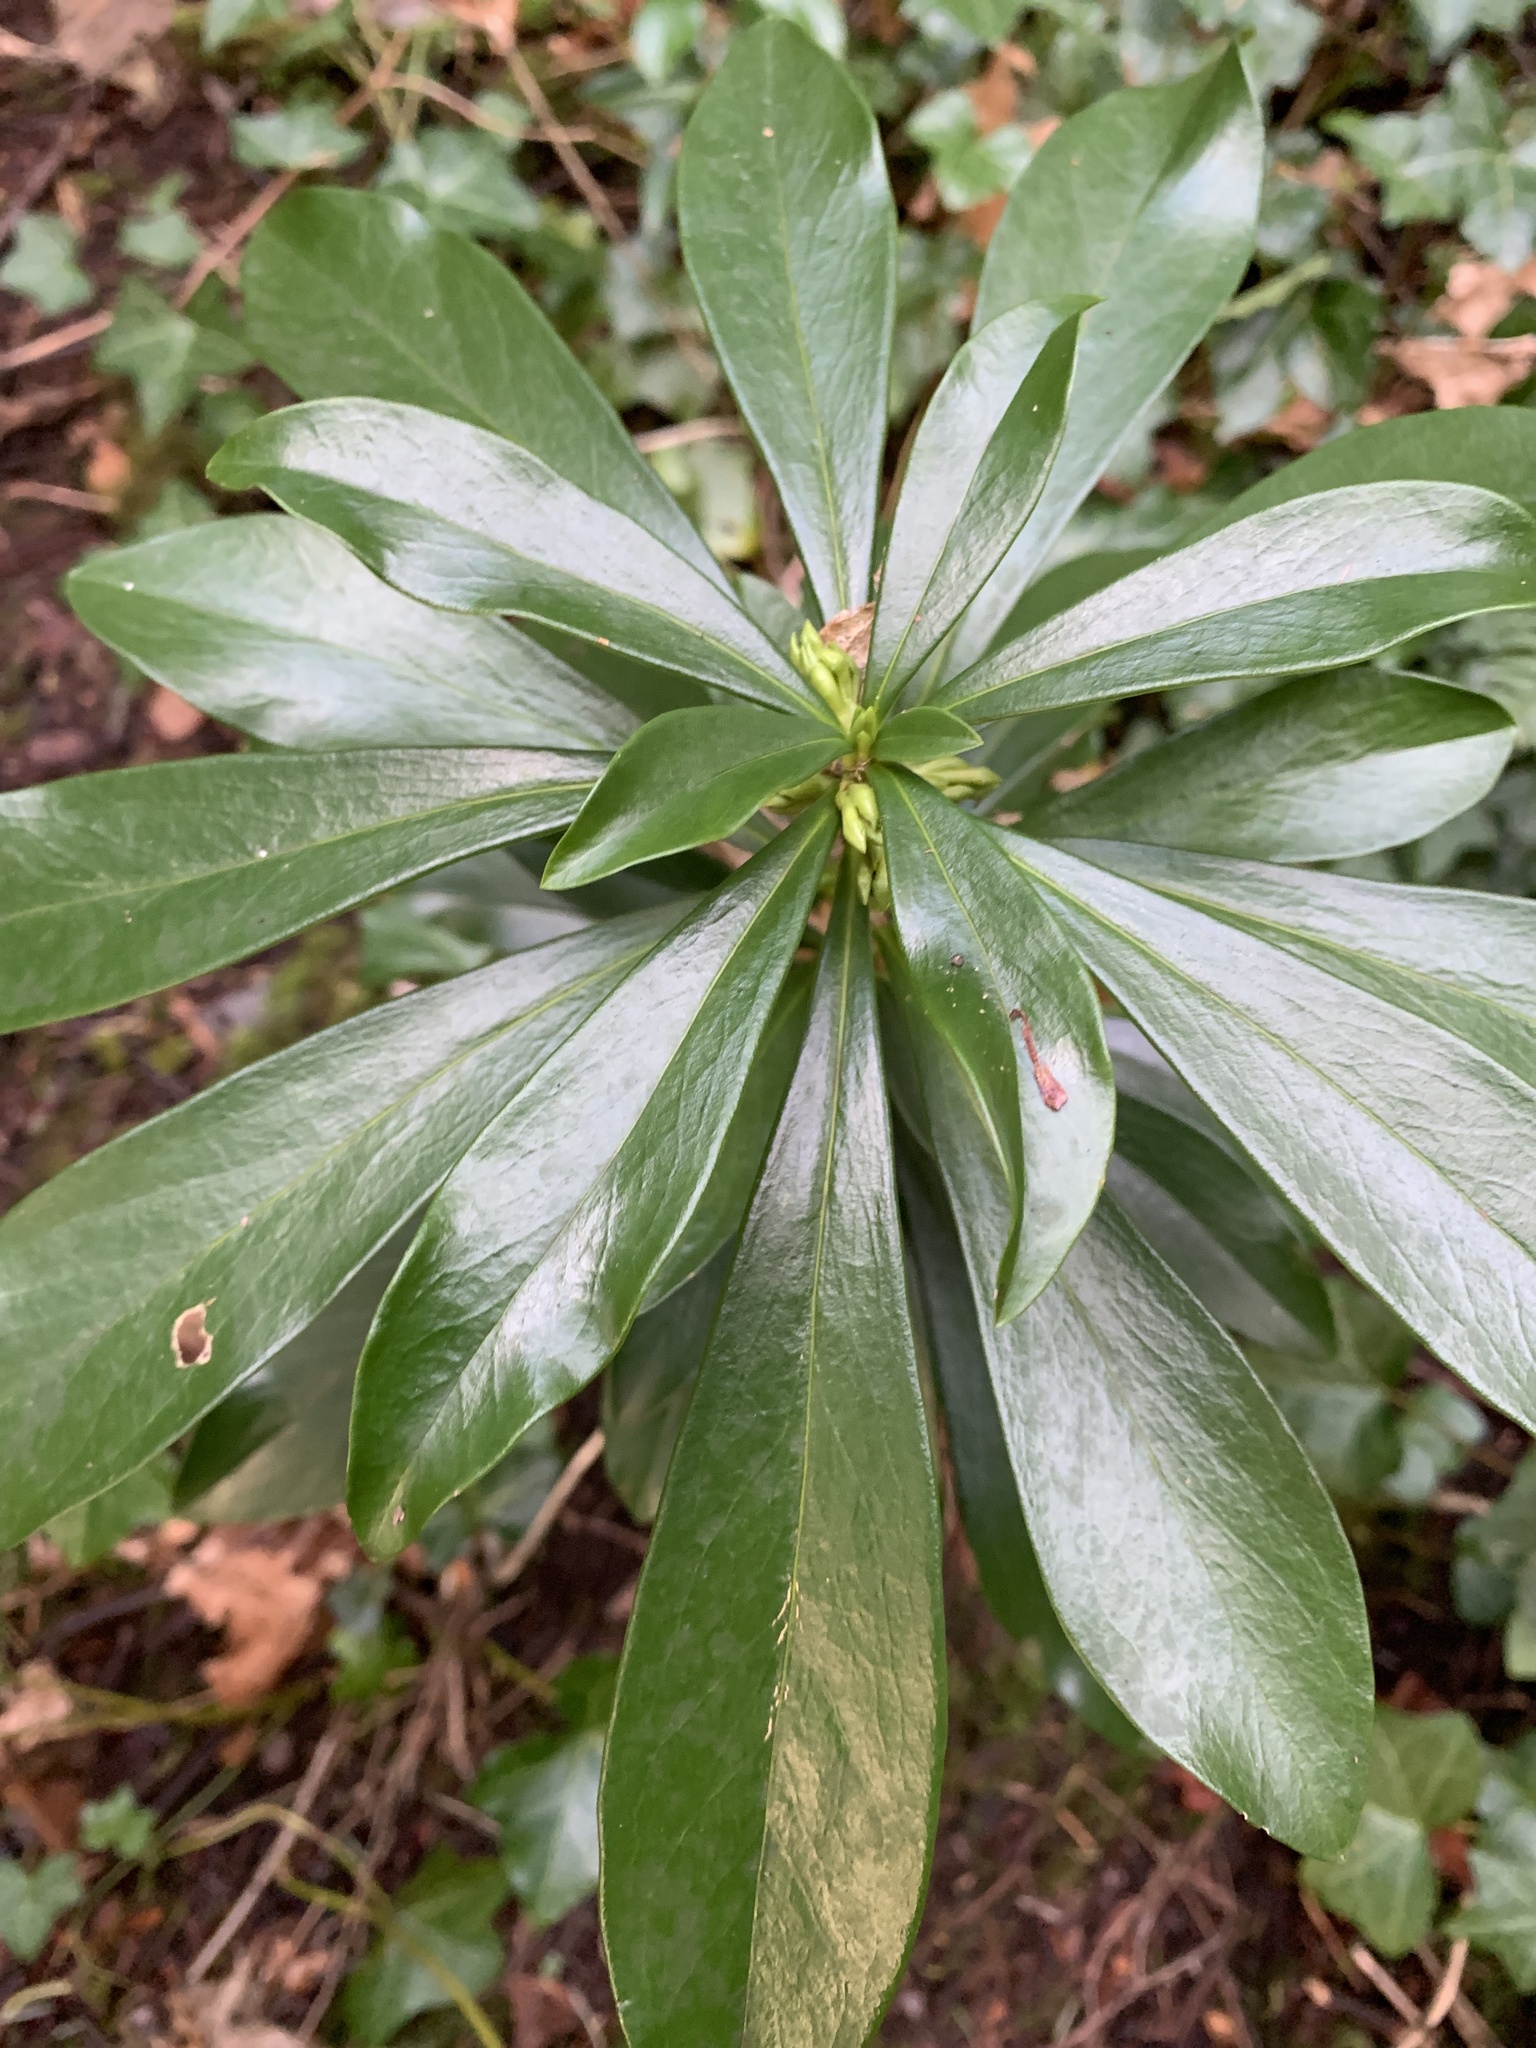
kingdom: Plantae
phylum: Tracheophyta
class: Magnoliopsida
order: Malvales
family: Thymelaeaceae
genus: Daphne
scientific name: Daphne laureola
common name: Spurge-laurel
